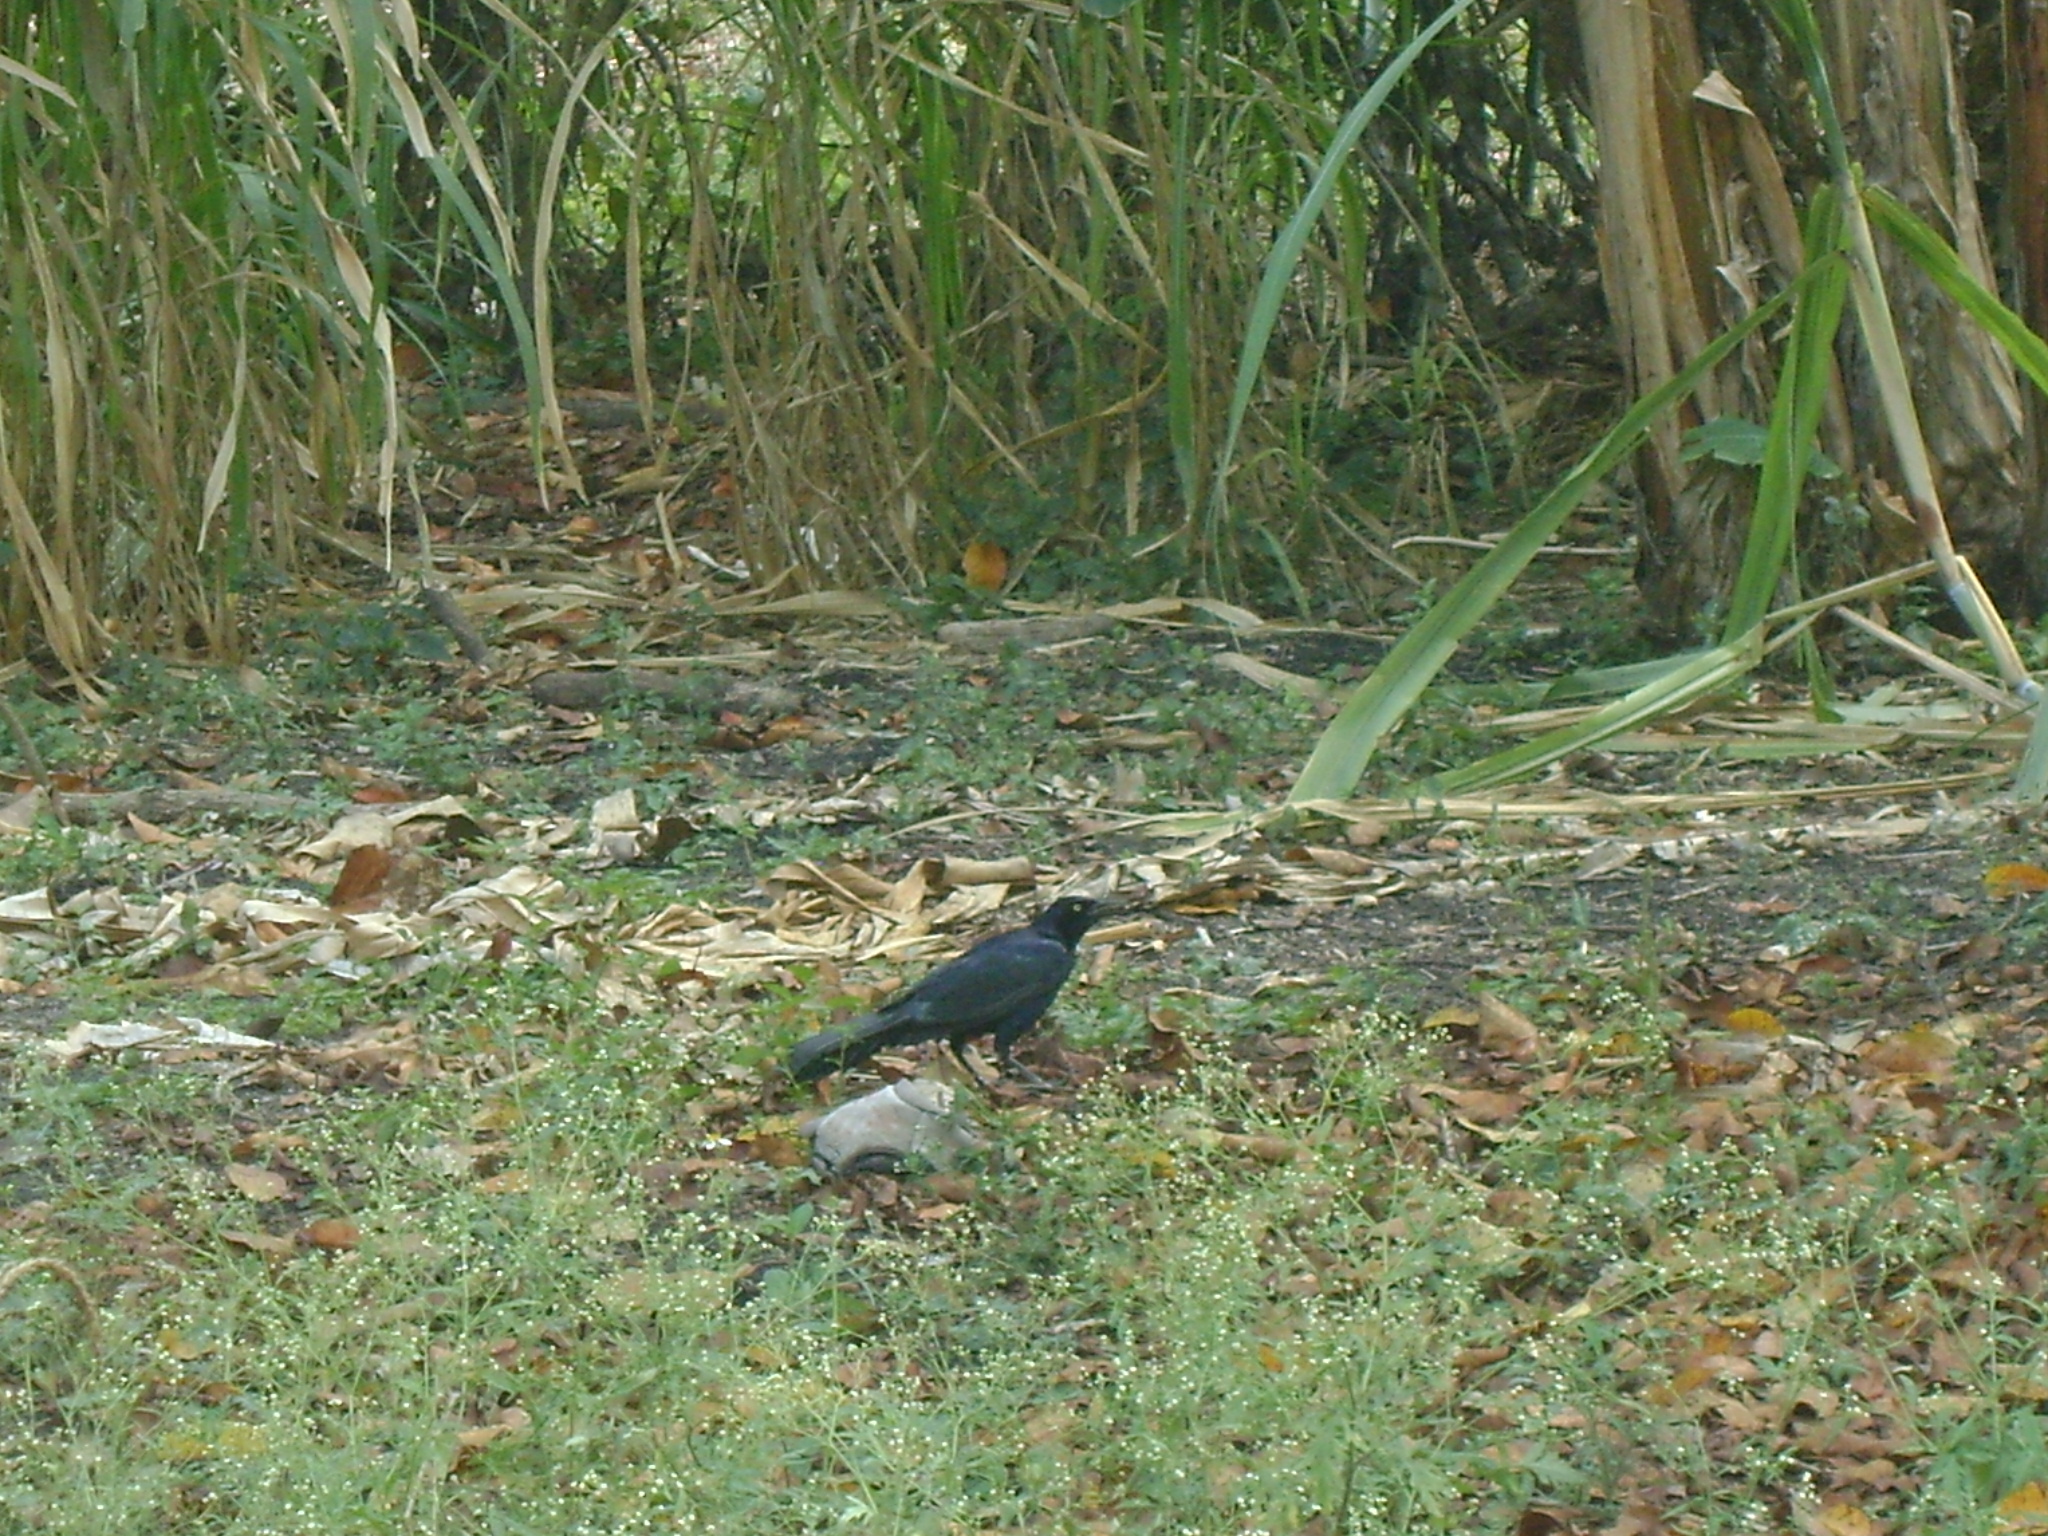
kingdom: Animalia
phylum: Chordata
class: Aves
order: Passeriformes
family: Icteridae
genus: Quiscalus
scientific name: Quiscalus mexicanus
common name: Great-tailed grackle
